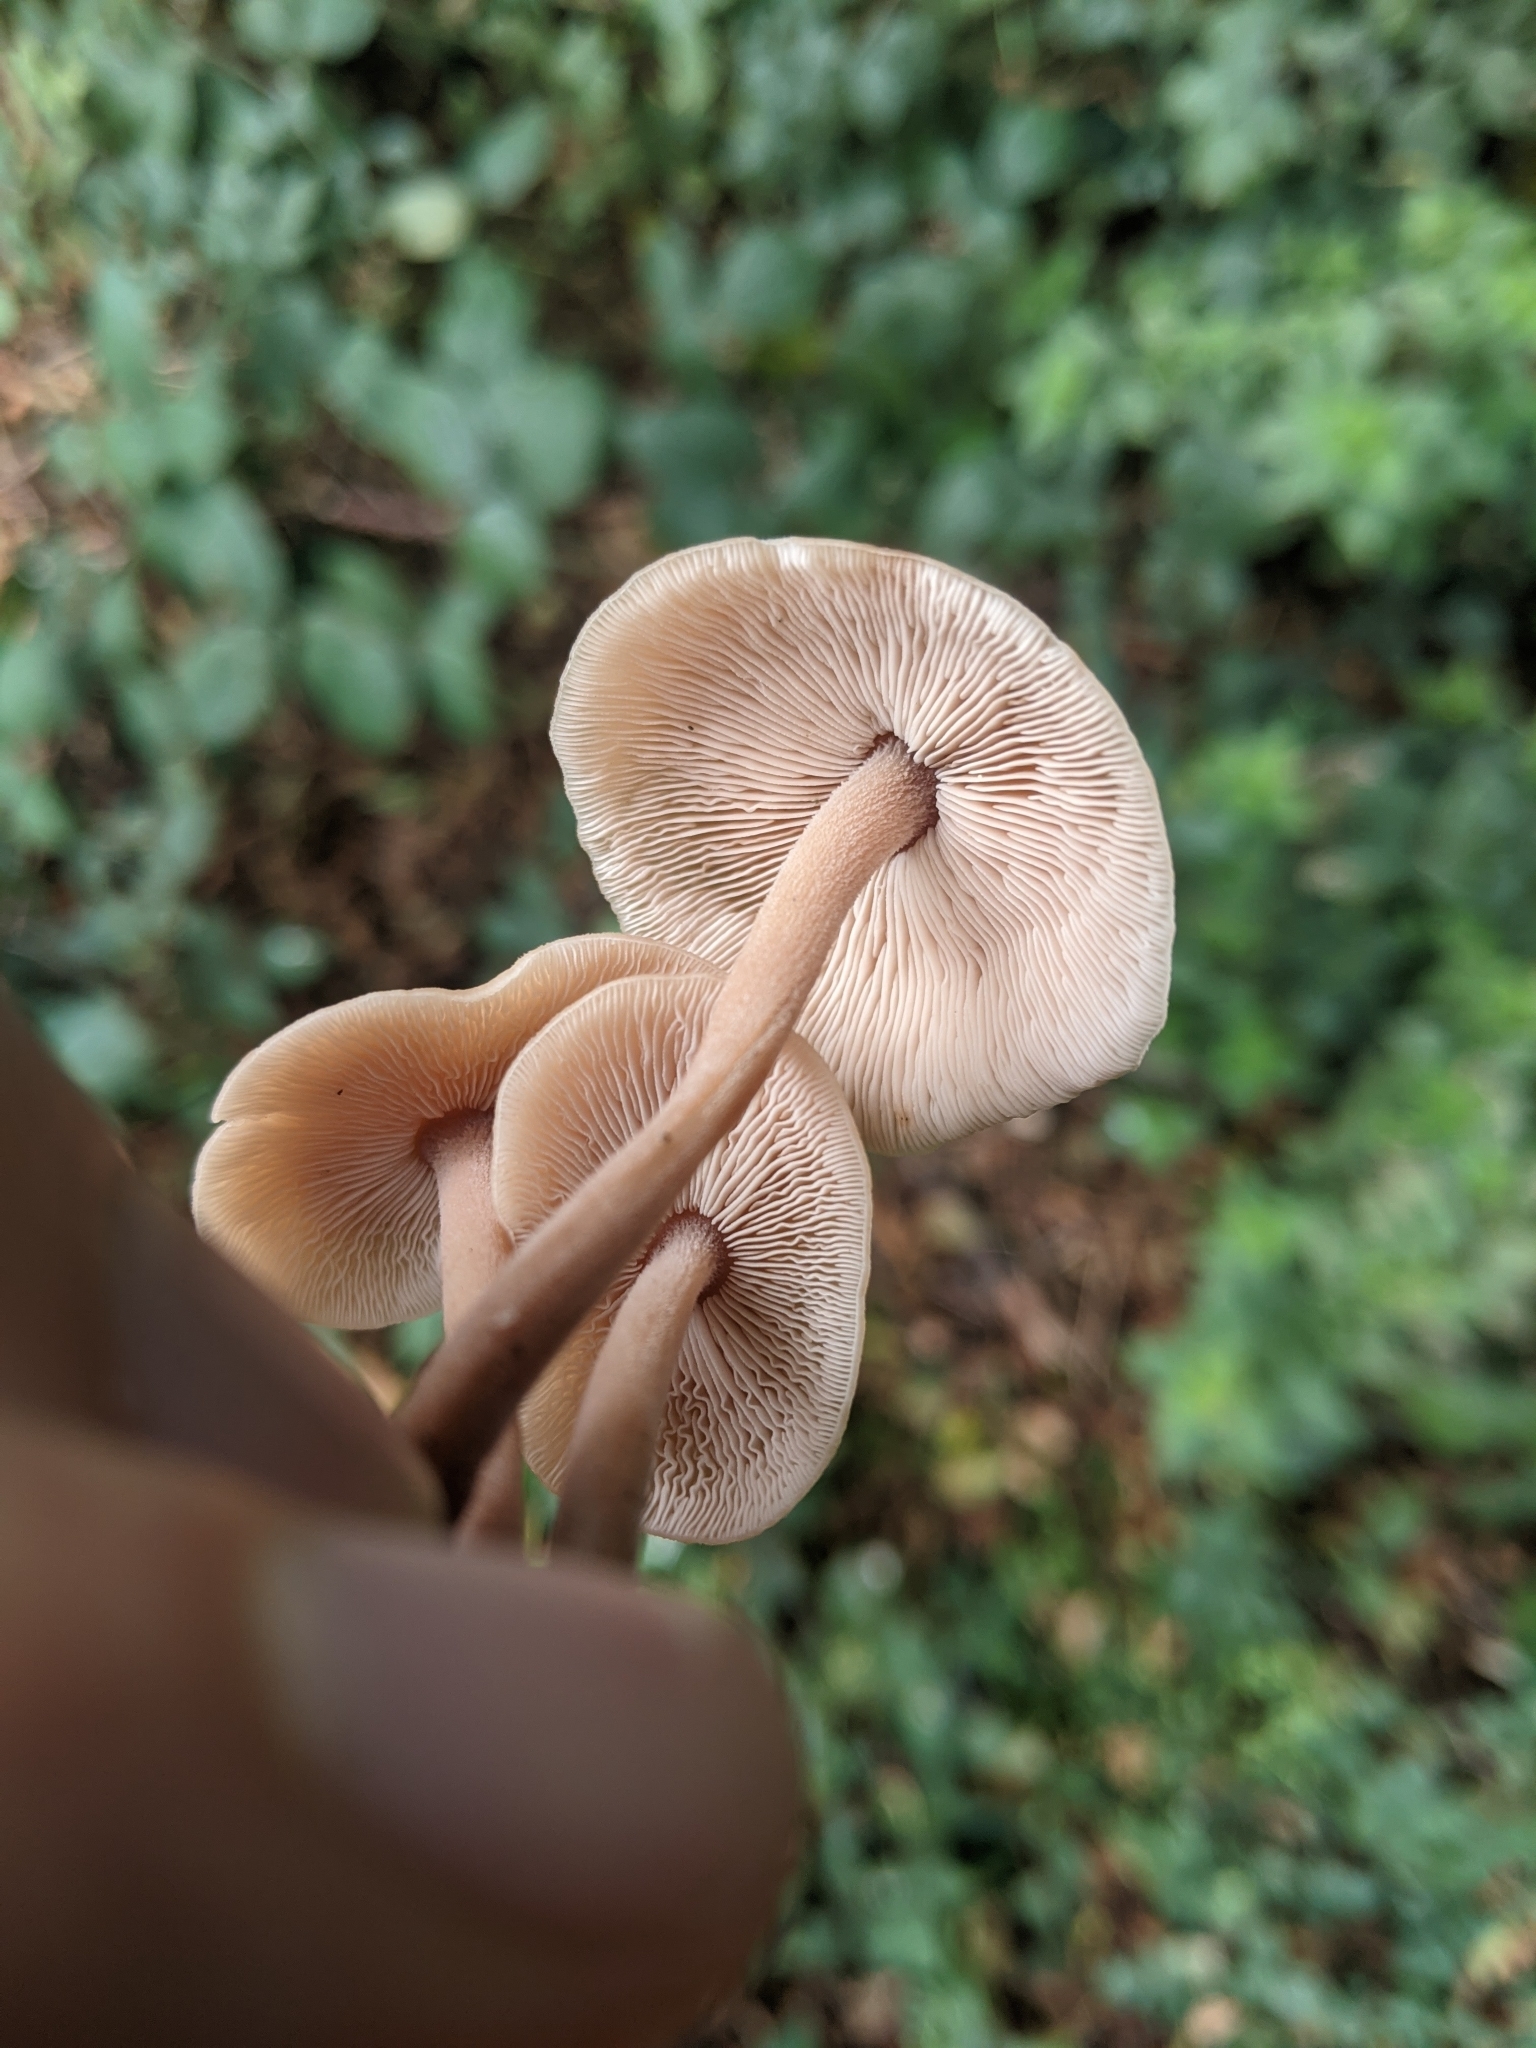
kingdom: Fungi
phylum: Basidiomycota
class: Agaricomycetes
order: Agaricales
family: Omphalotaceae
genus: Collybiopsis
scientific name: Collybiopsis confluens
